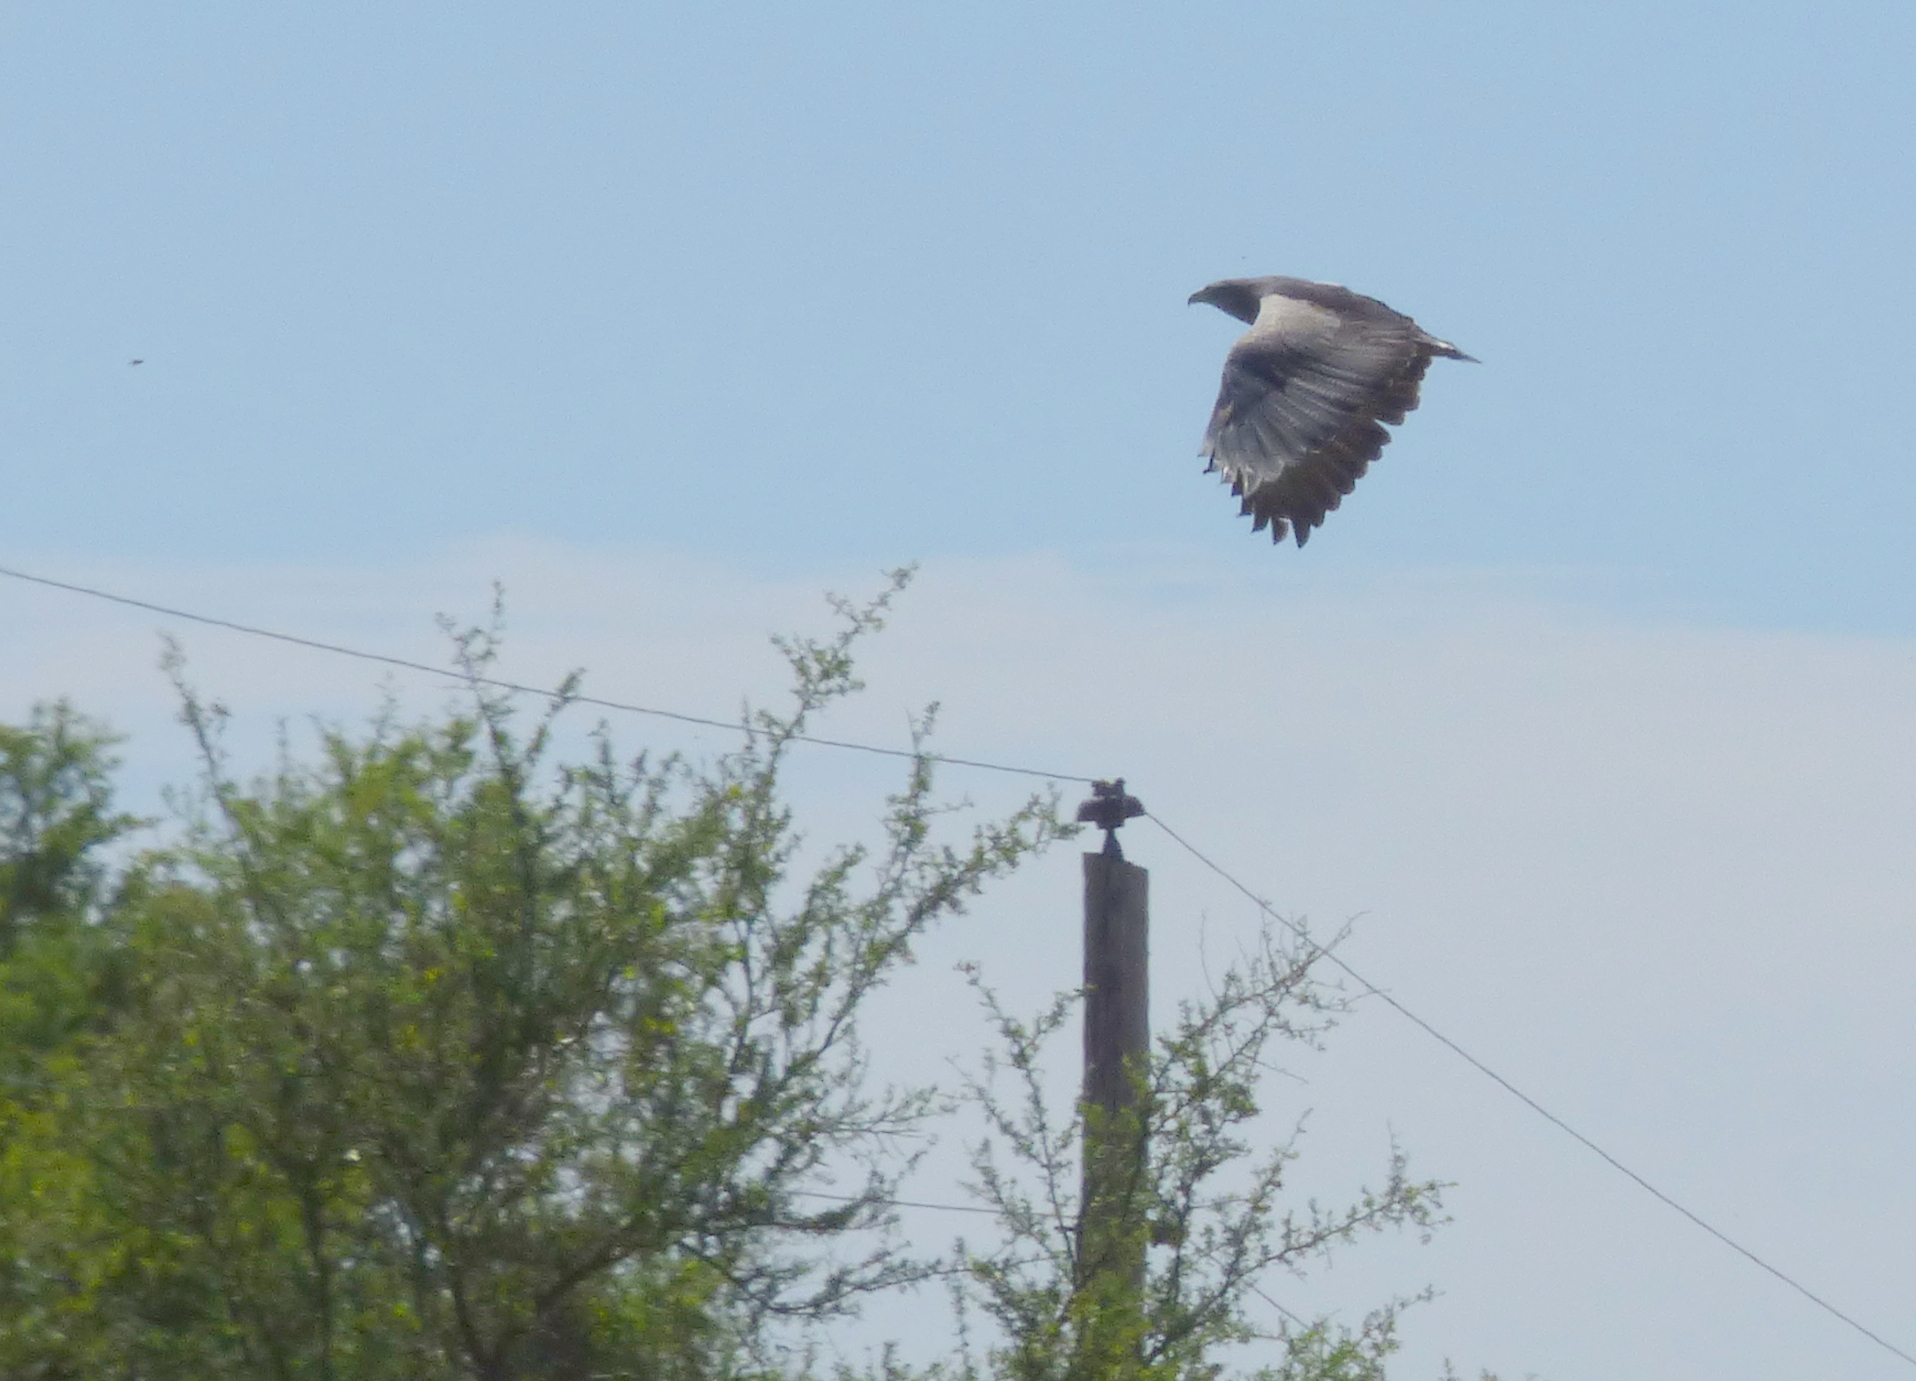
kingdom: Animalia
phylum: Chordata
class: Aves
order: Accipitriformes
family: Accipitridae
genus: Geranoaetus
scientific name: Geranoaetus melanoleucus
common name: Black-chested buzzard-eagle
